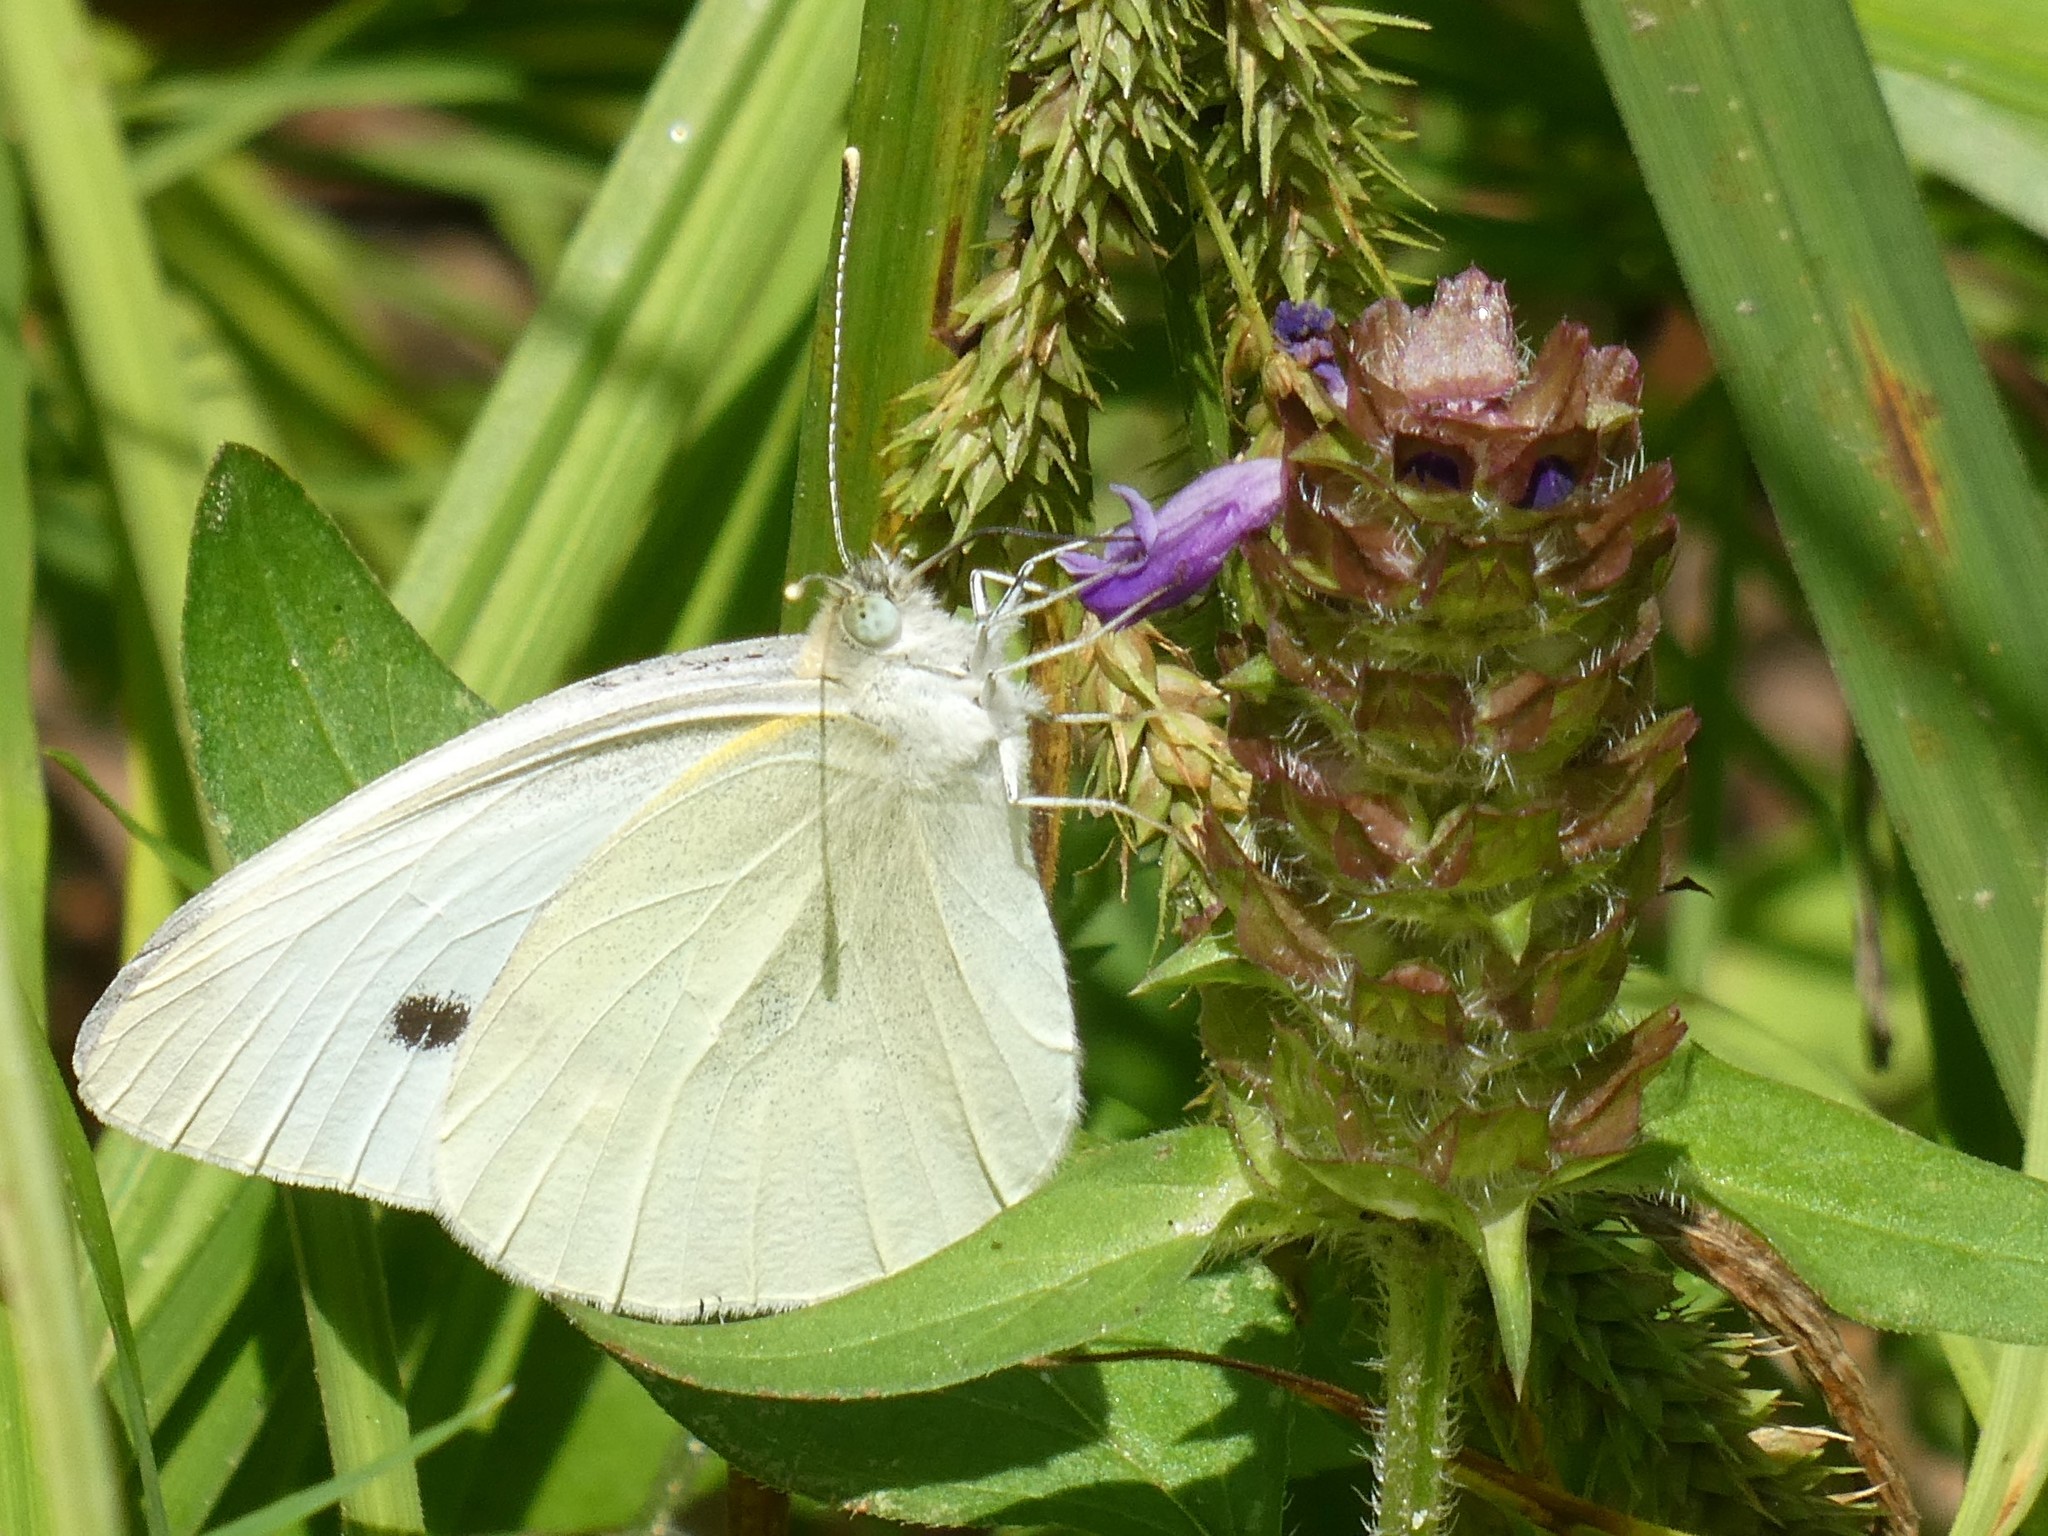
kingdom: Animalia
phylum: Arthropoda
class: Insecta
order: Lepidoptera
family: Pieridae
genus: Pieris
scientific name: Pieris rapae
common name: Small white
